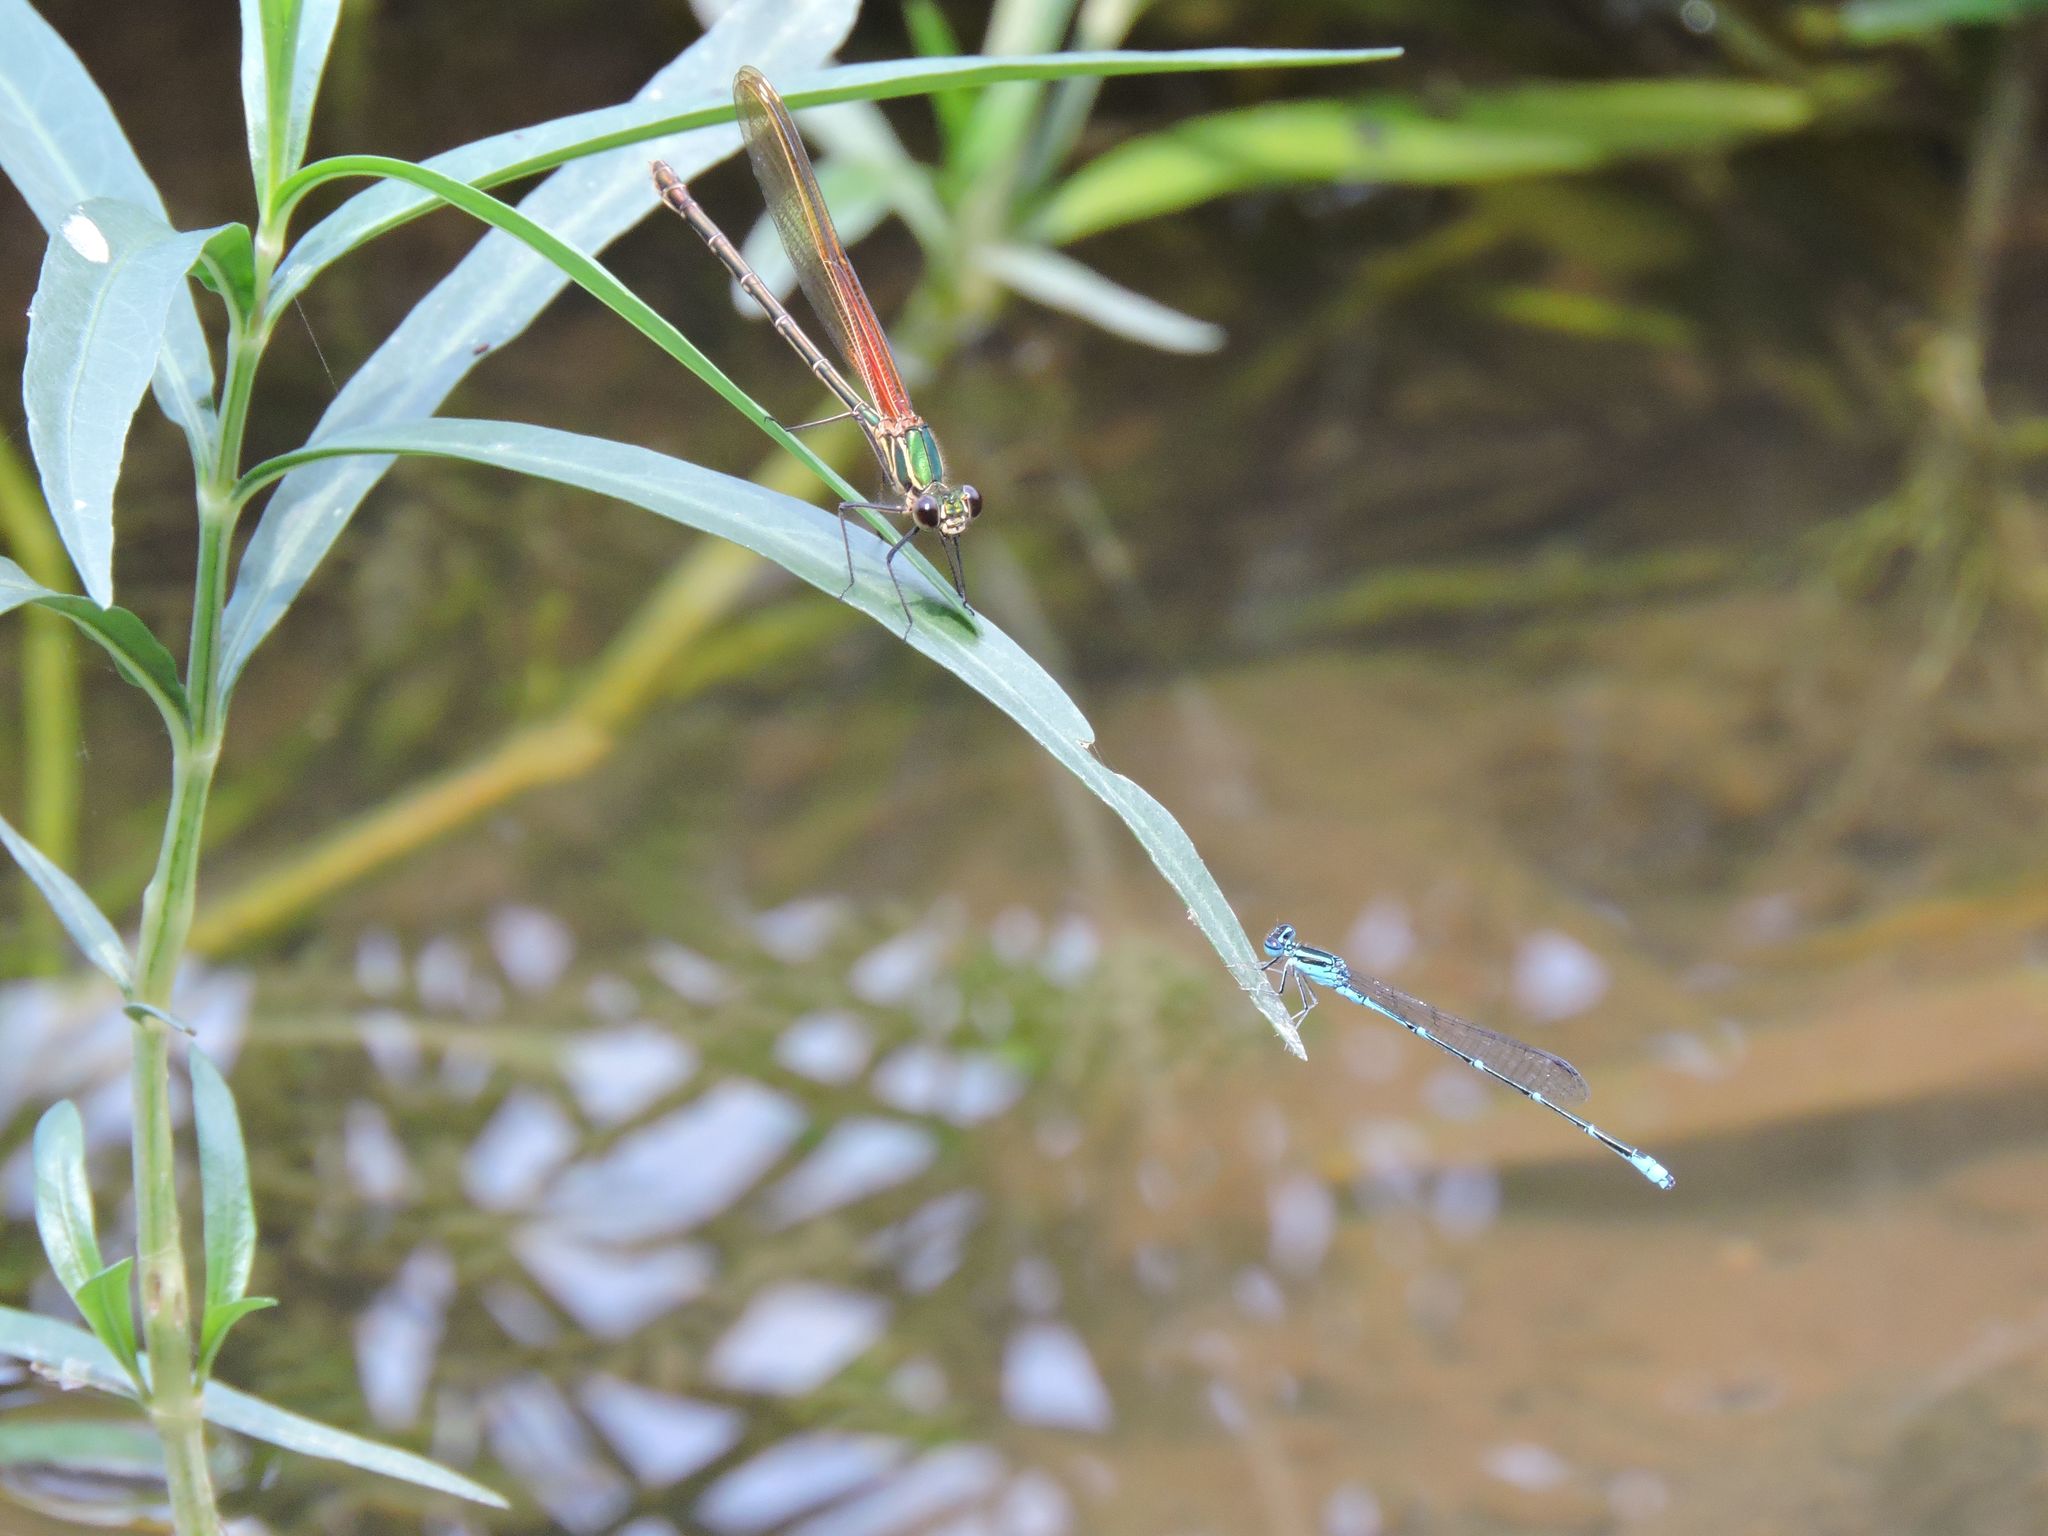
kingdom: Animalia
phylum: Arthropoda
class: Insecta
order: Odonata
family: Coenagrionidae
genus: Enallagma
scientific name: Enallagma exsulans
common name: Stream bluet
